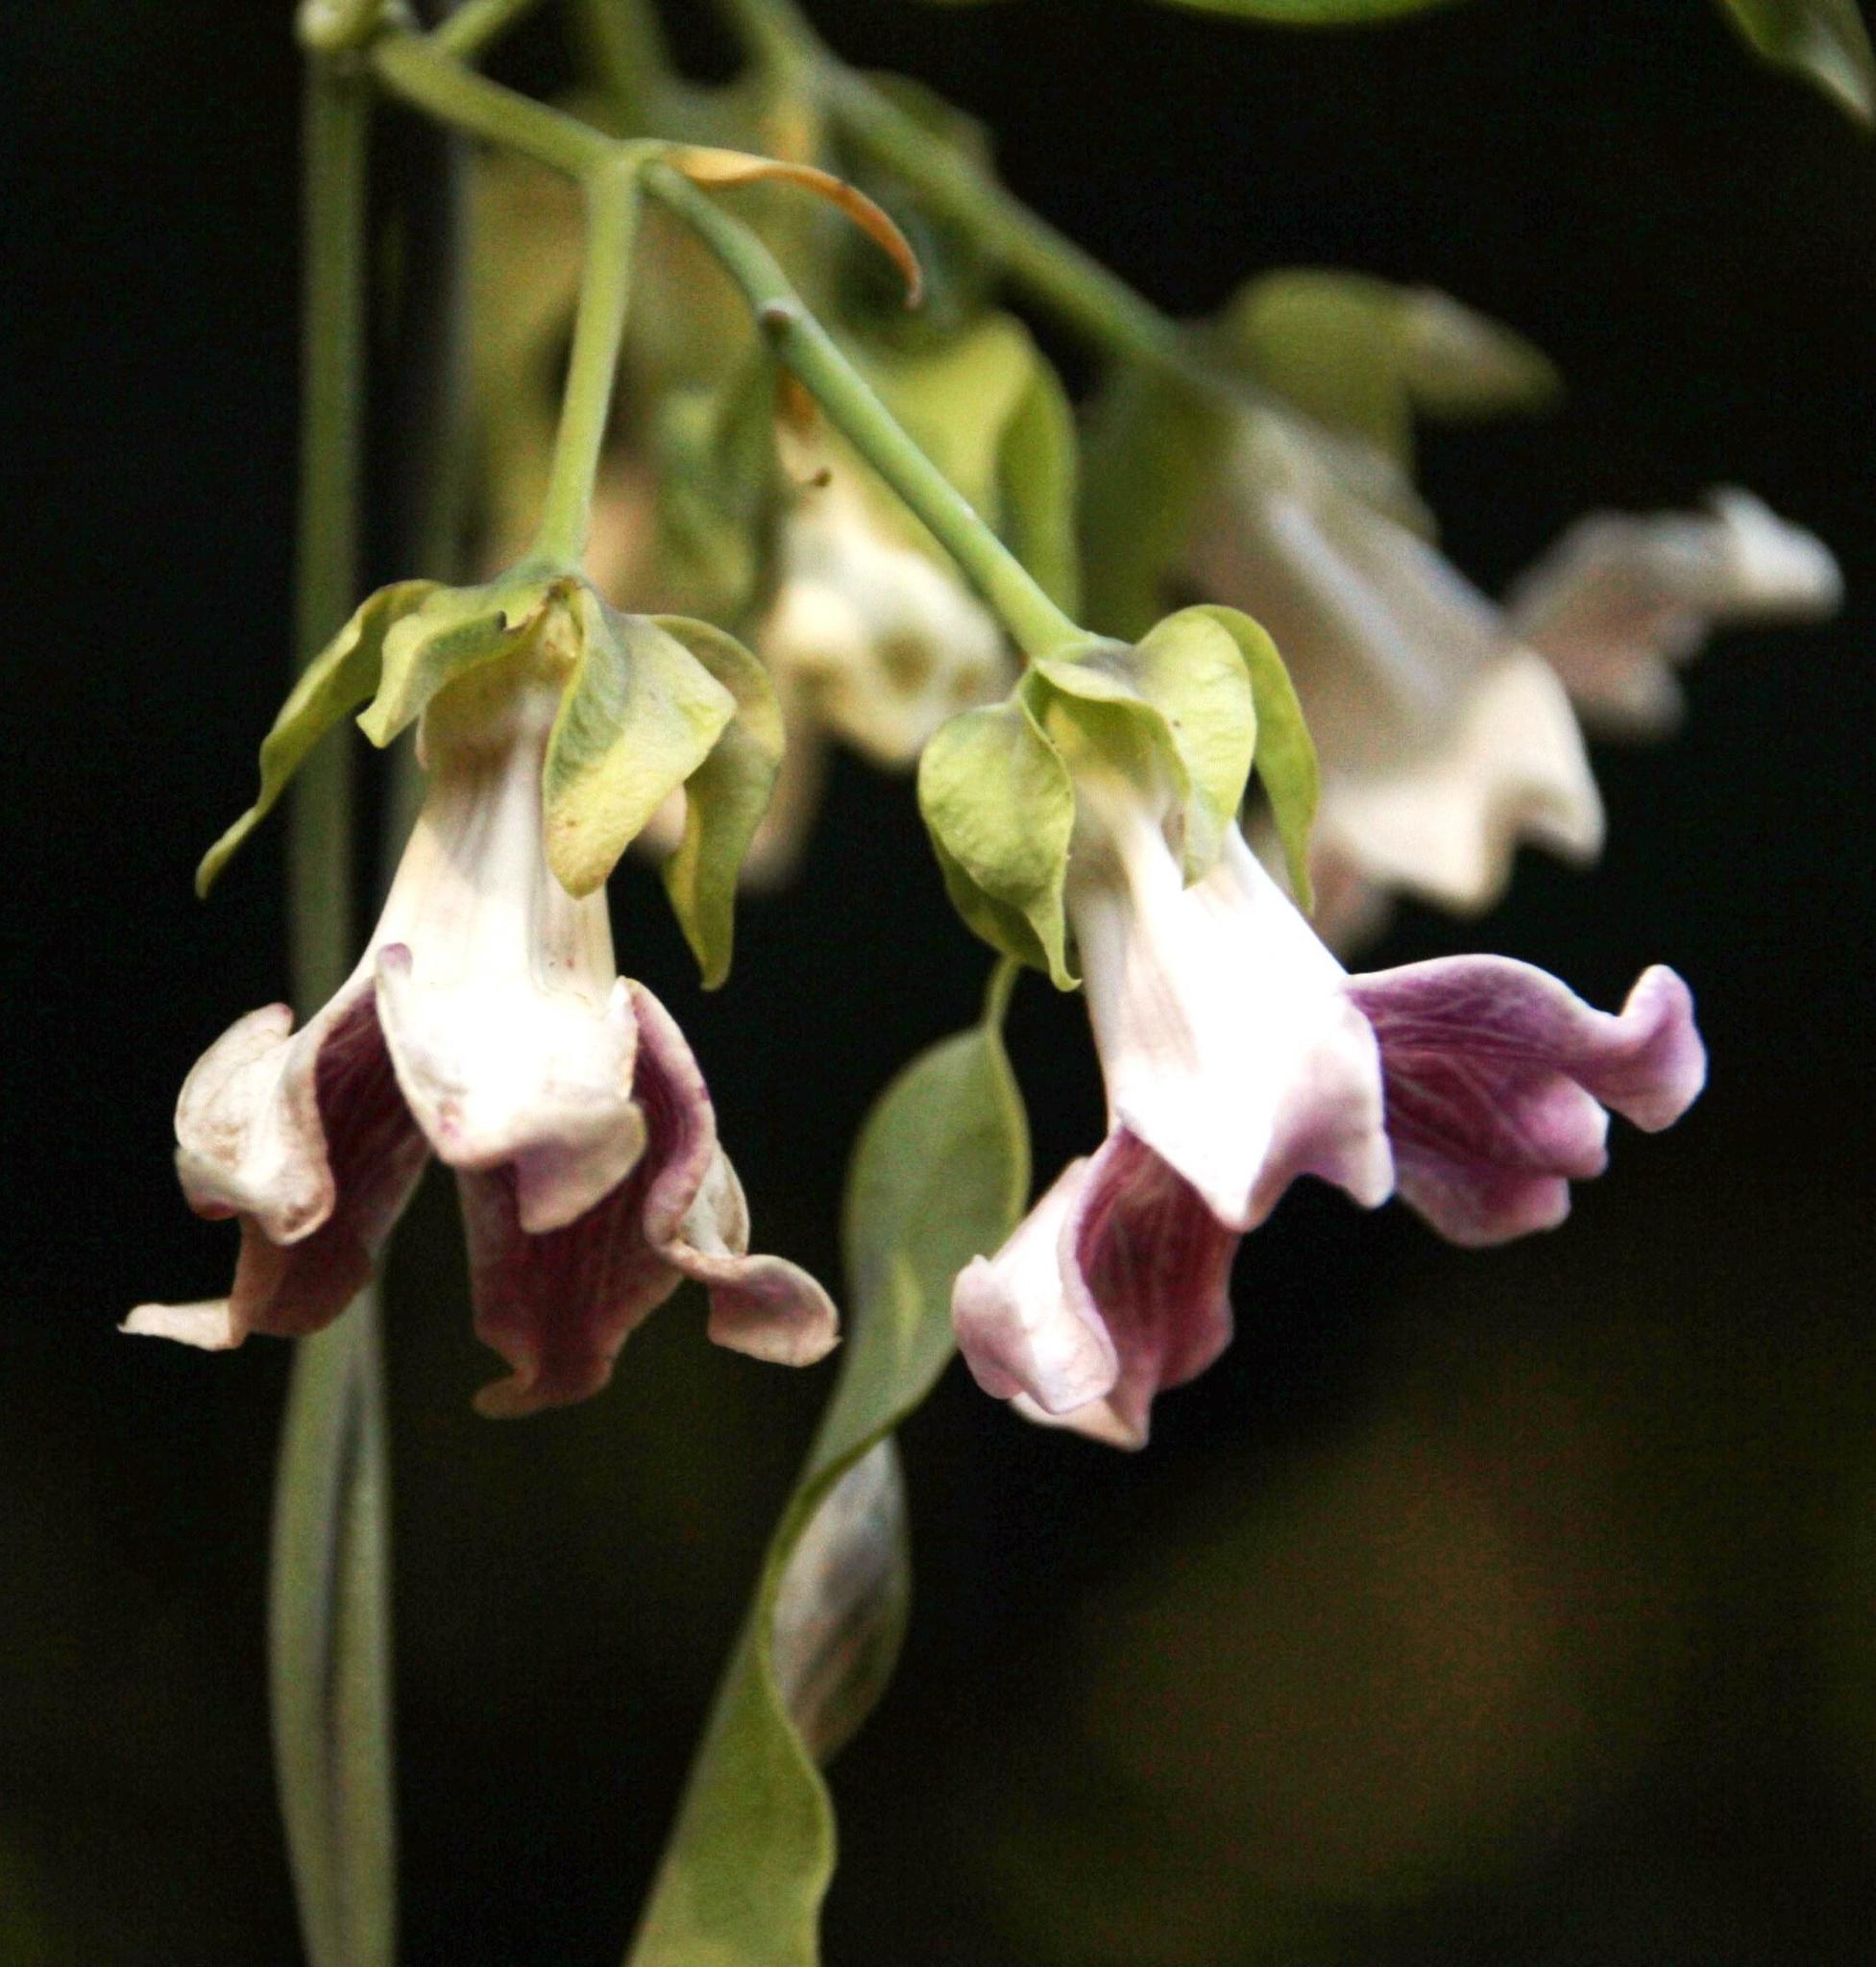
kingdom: Plantae
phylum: Tracheophyta
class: Magnoliopsida
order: Gentianales
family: Apocynaceae
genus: Araujia
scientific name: Araujia sericifera
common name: White bladderflower
